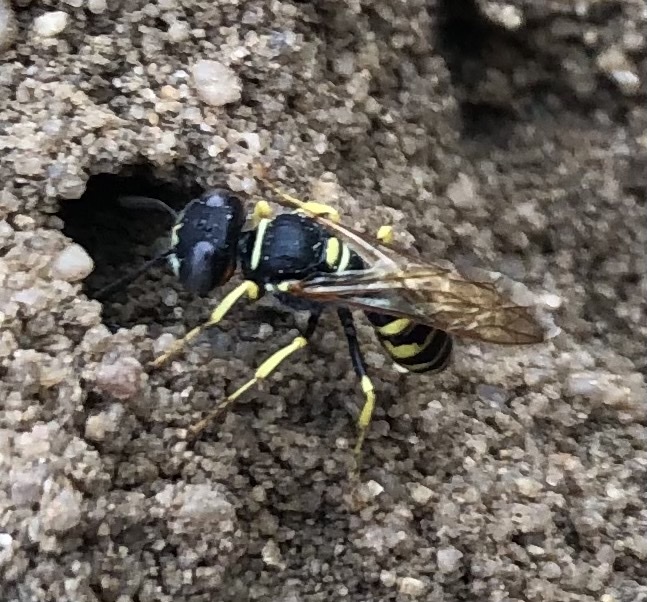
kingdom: Animalia
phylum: Arthropoda
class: Insecta
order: Hymenoptera
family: Crabronidae
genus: Philanthus
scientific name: Philanthus triangulum
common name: Bee wolf
